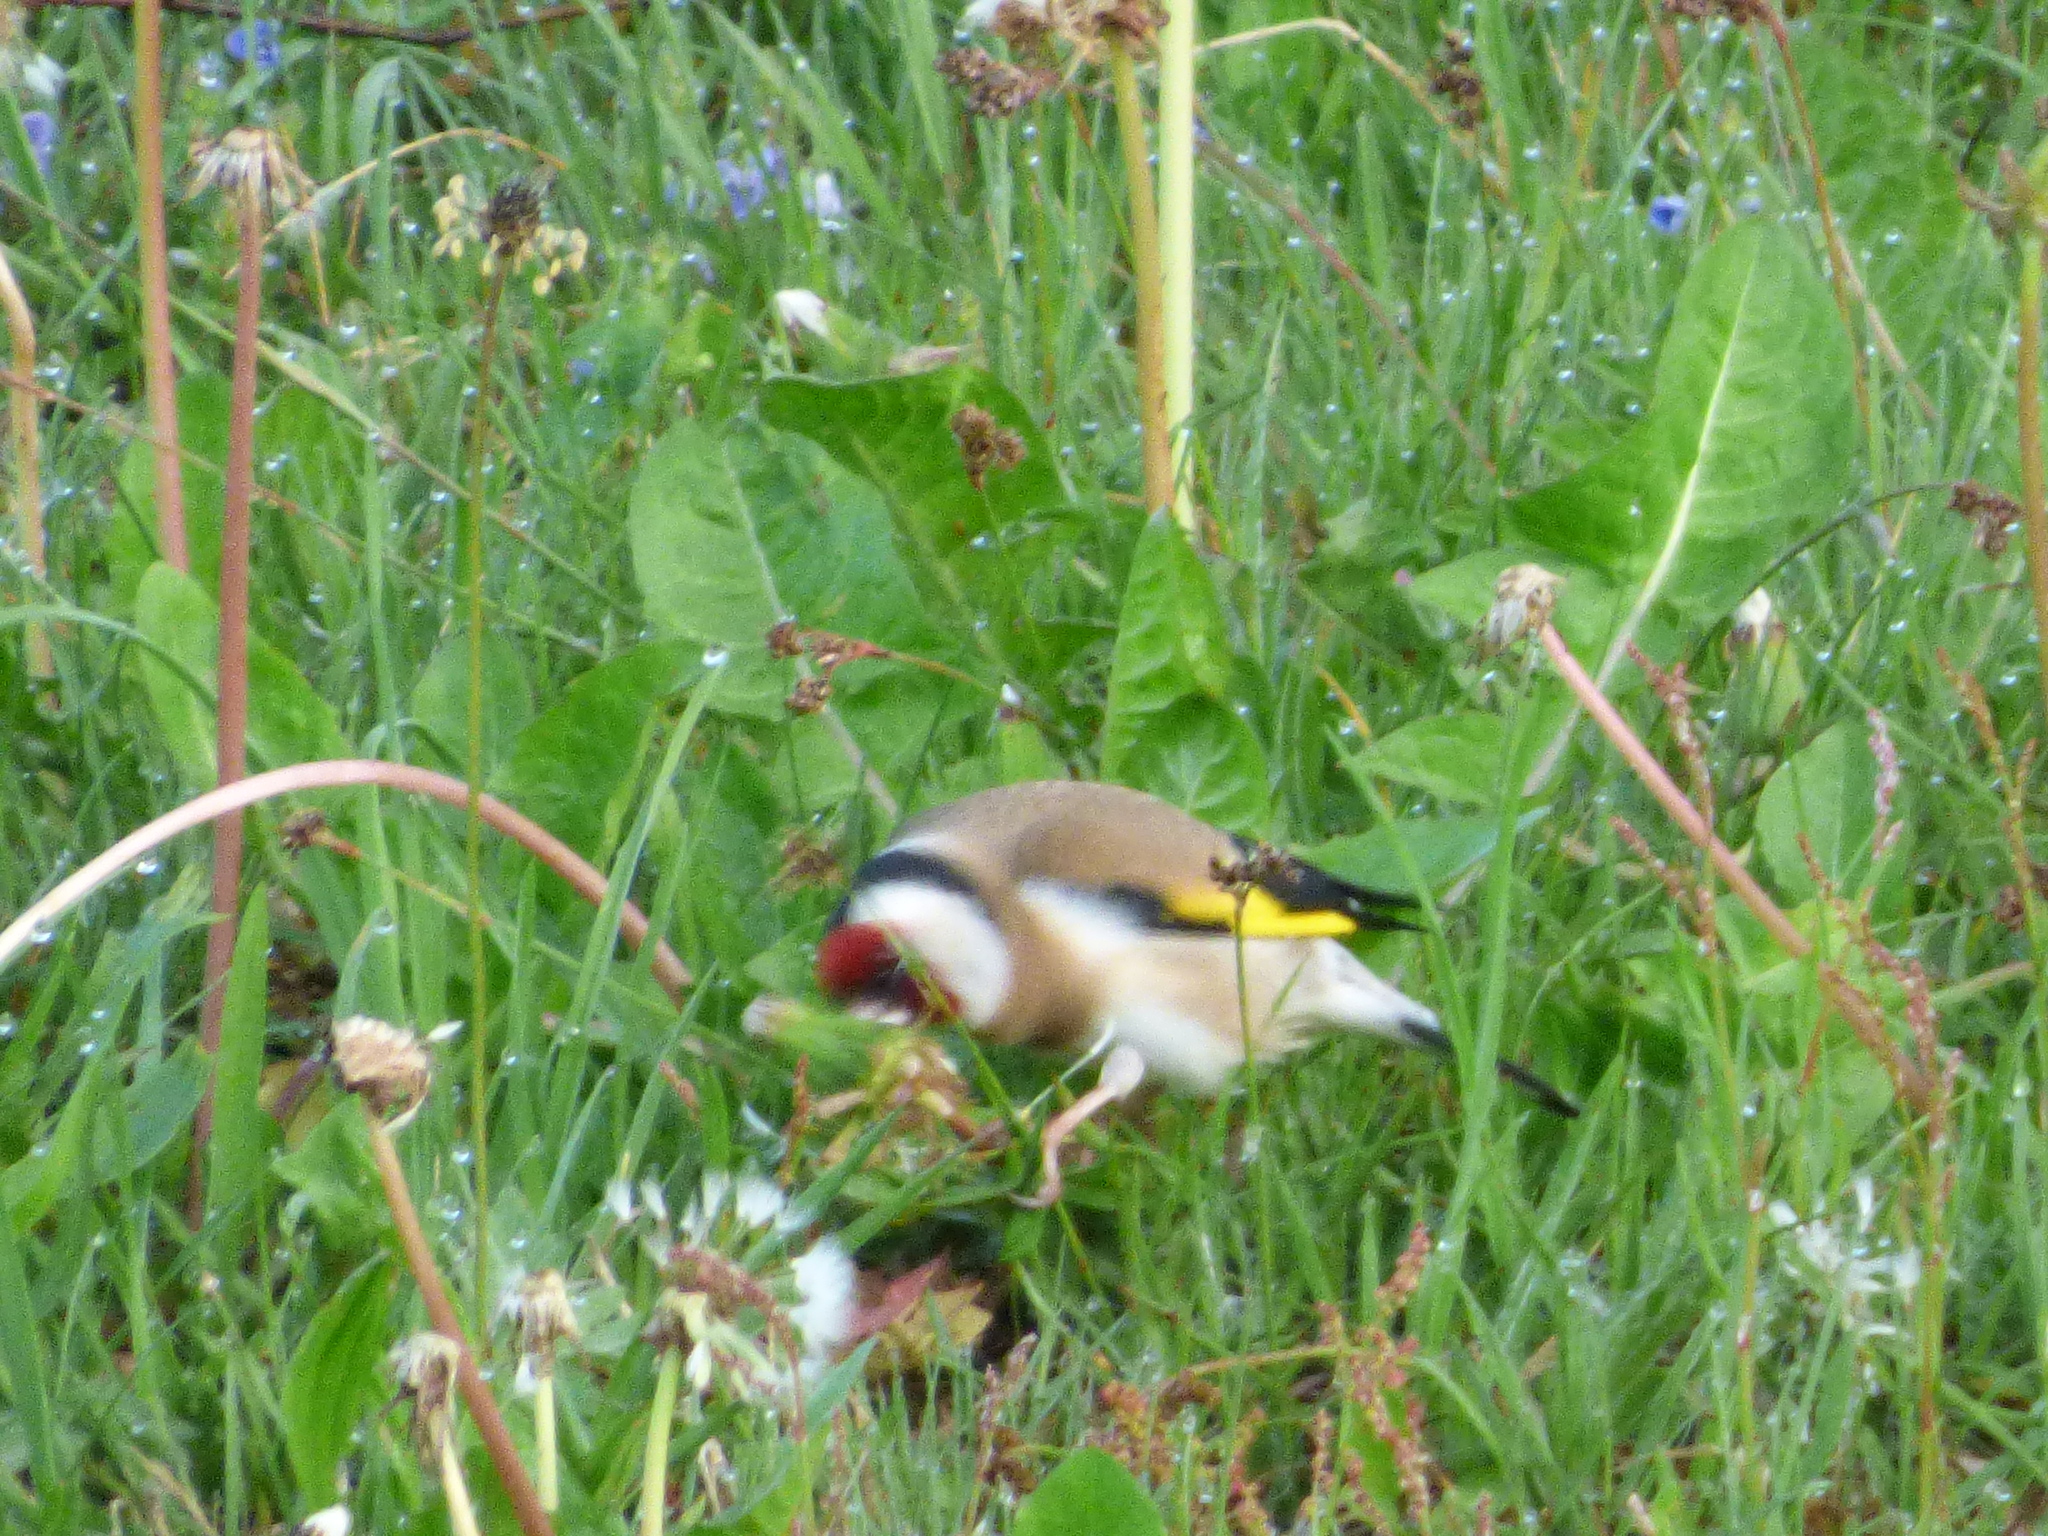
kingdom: Animalia
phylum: Chordata
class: Aves
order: Passeriformes
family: Fringillidae
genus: Carduelis
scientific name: Carduelis carduelis
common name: European goldfinch
